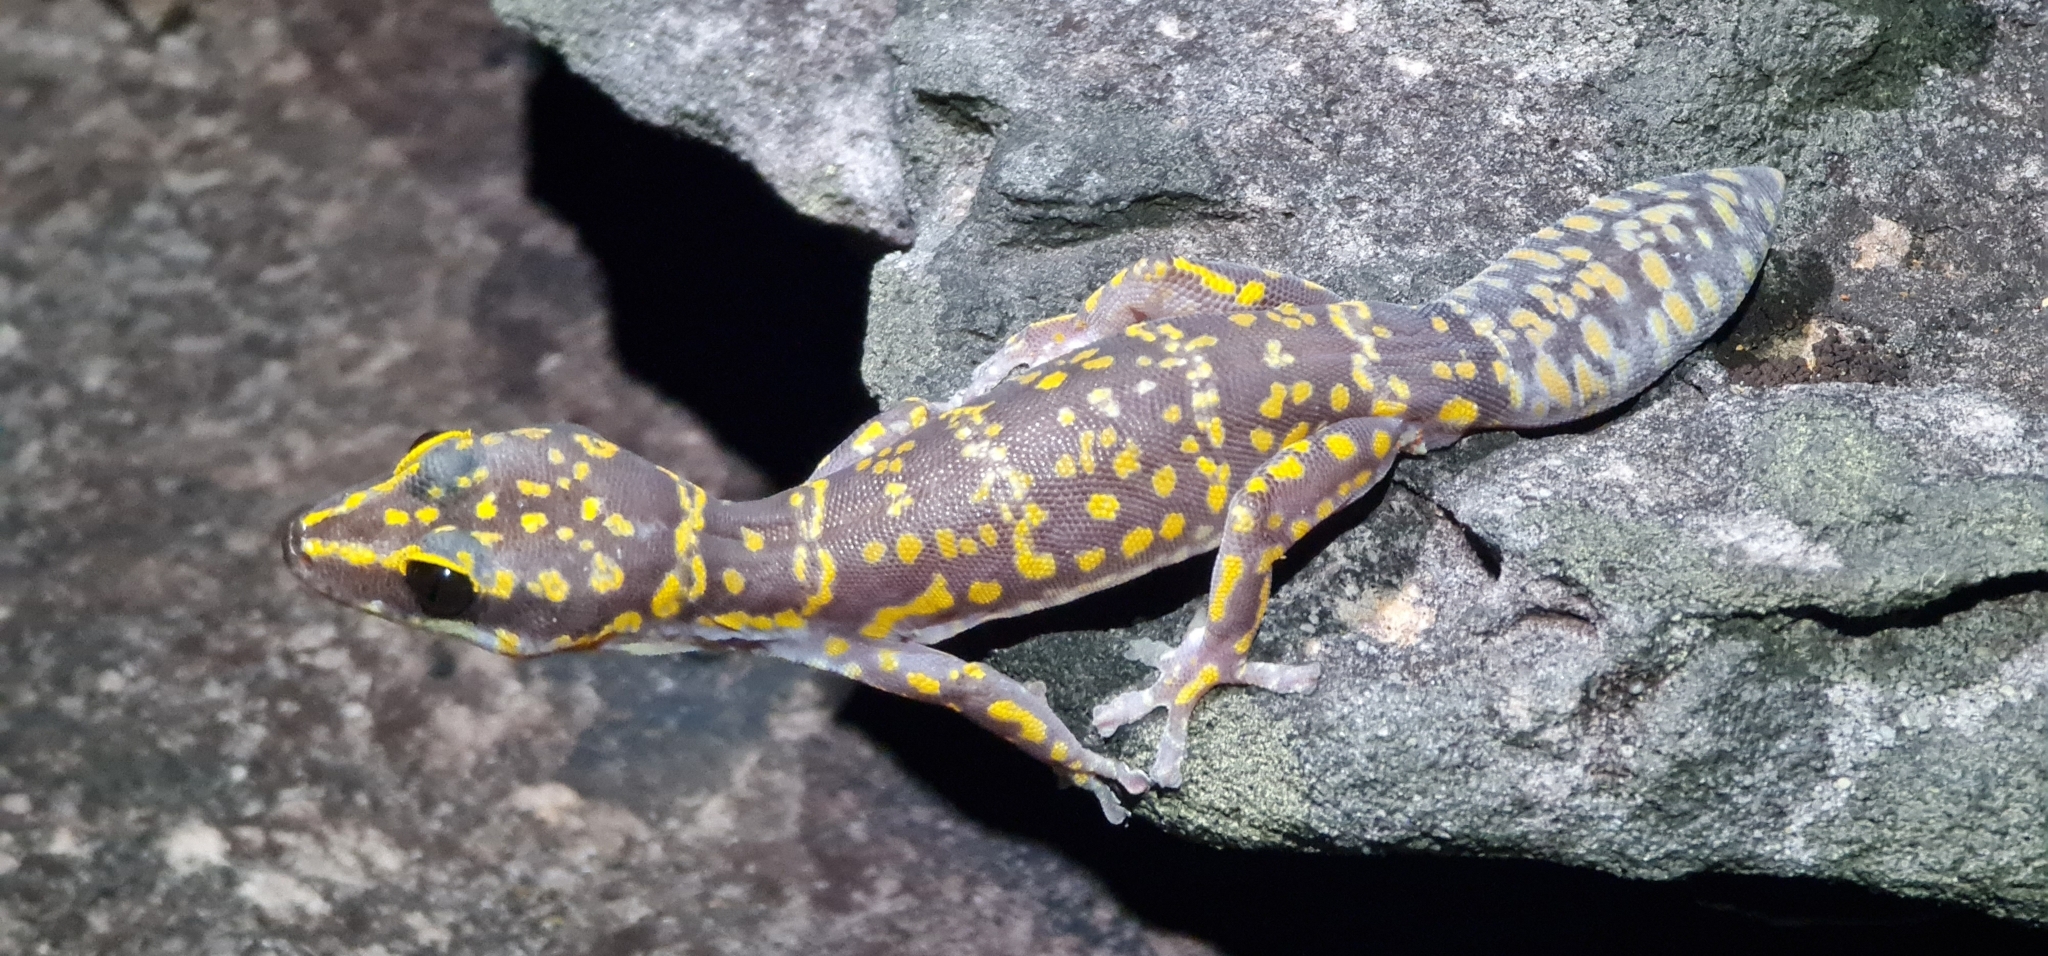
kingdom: Animalia
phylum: Chordata
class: Squamata
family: Diplodactylidae
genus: Oedura
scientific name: Oedura marmorata
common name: Marbled velvet gecko
